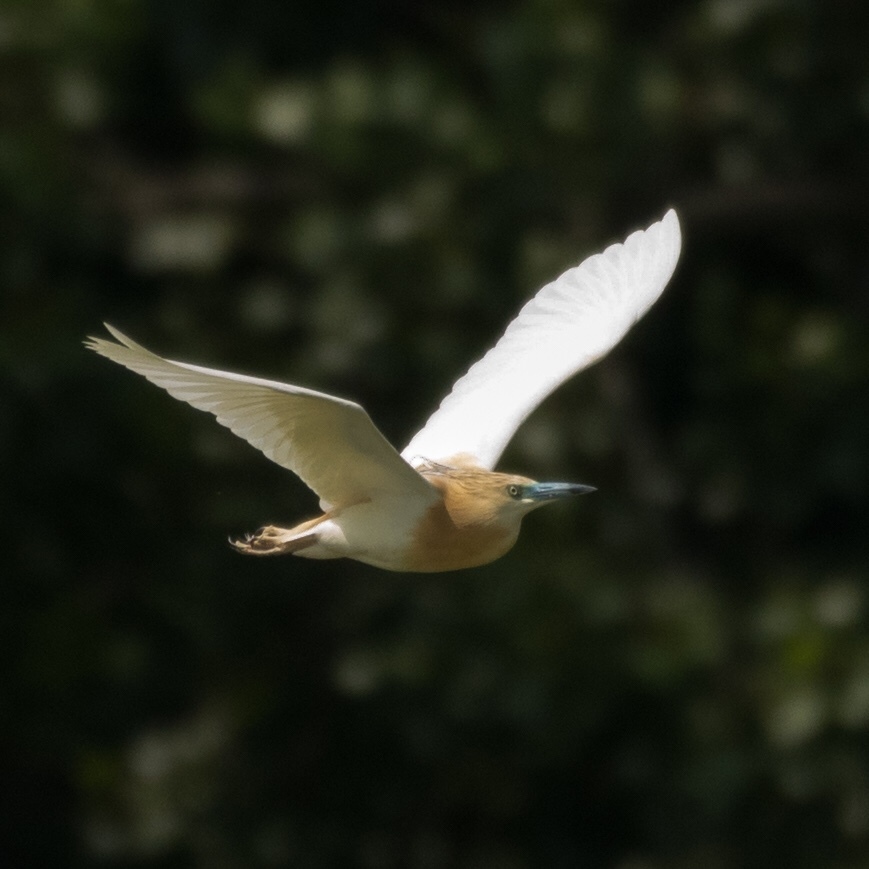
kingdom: Animalia
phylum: Chordata
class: Aves
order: Pelecaniformes
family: Ardeidae
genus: Ardeola
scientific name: Ardeola ralloides
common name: Squacco heron
